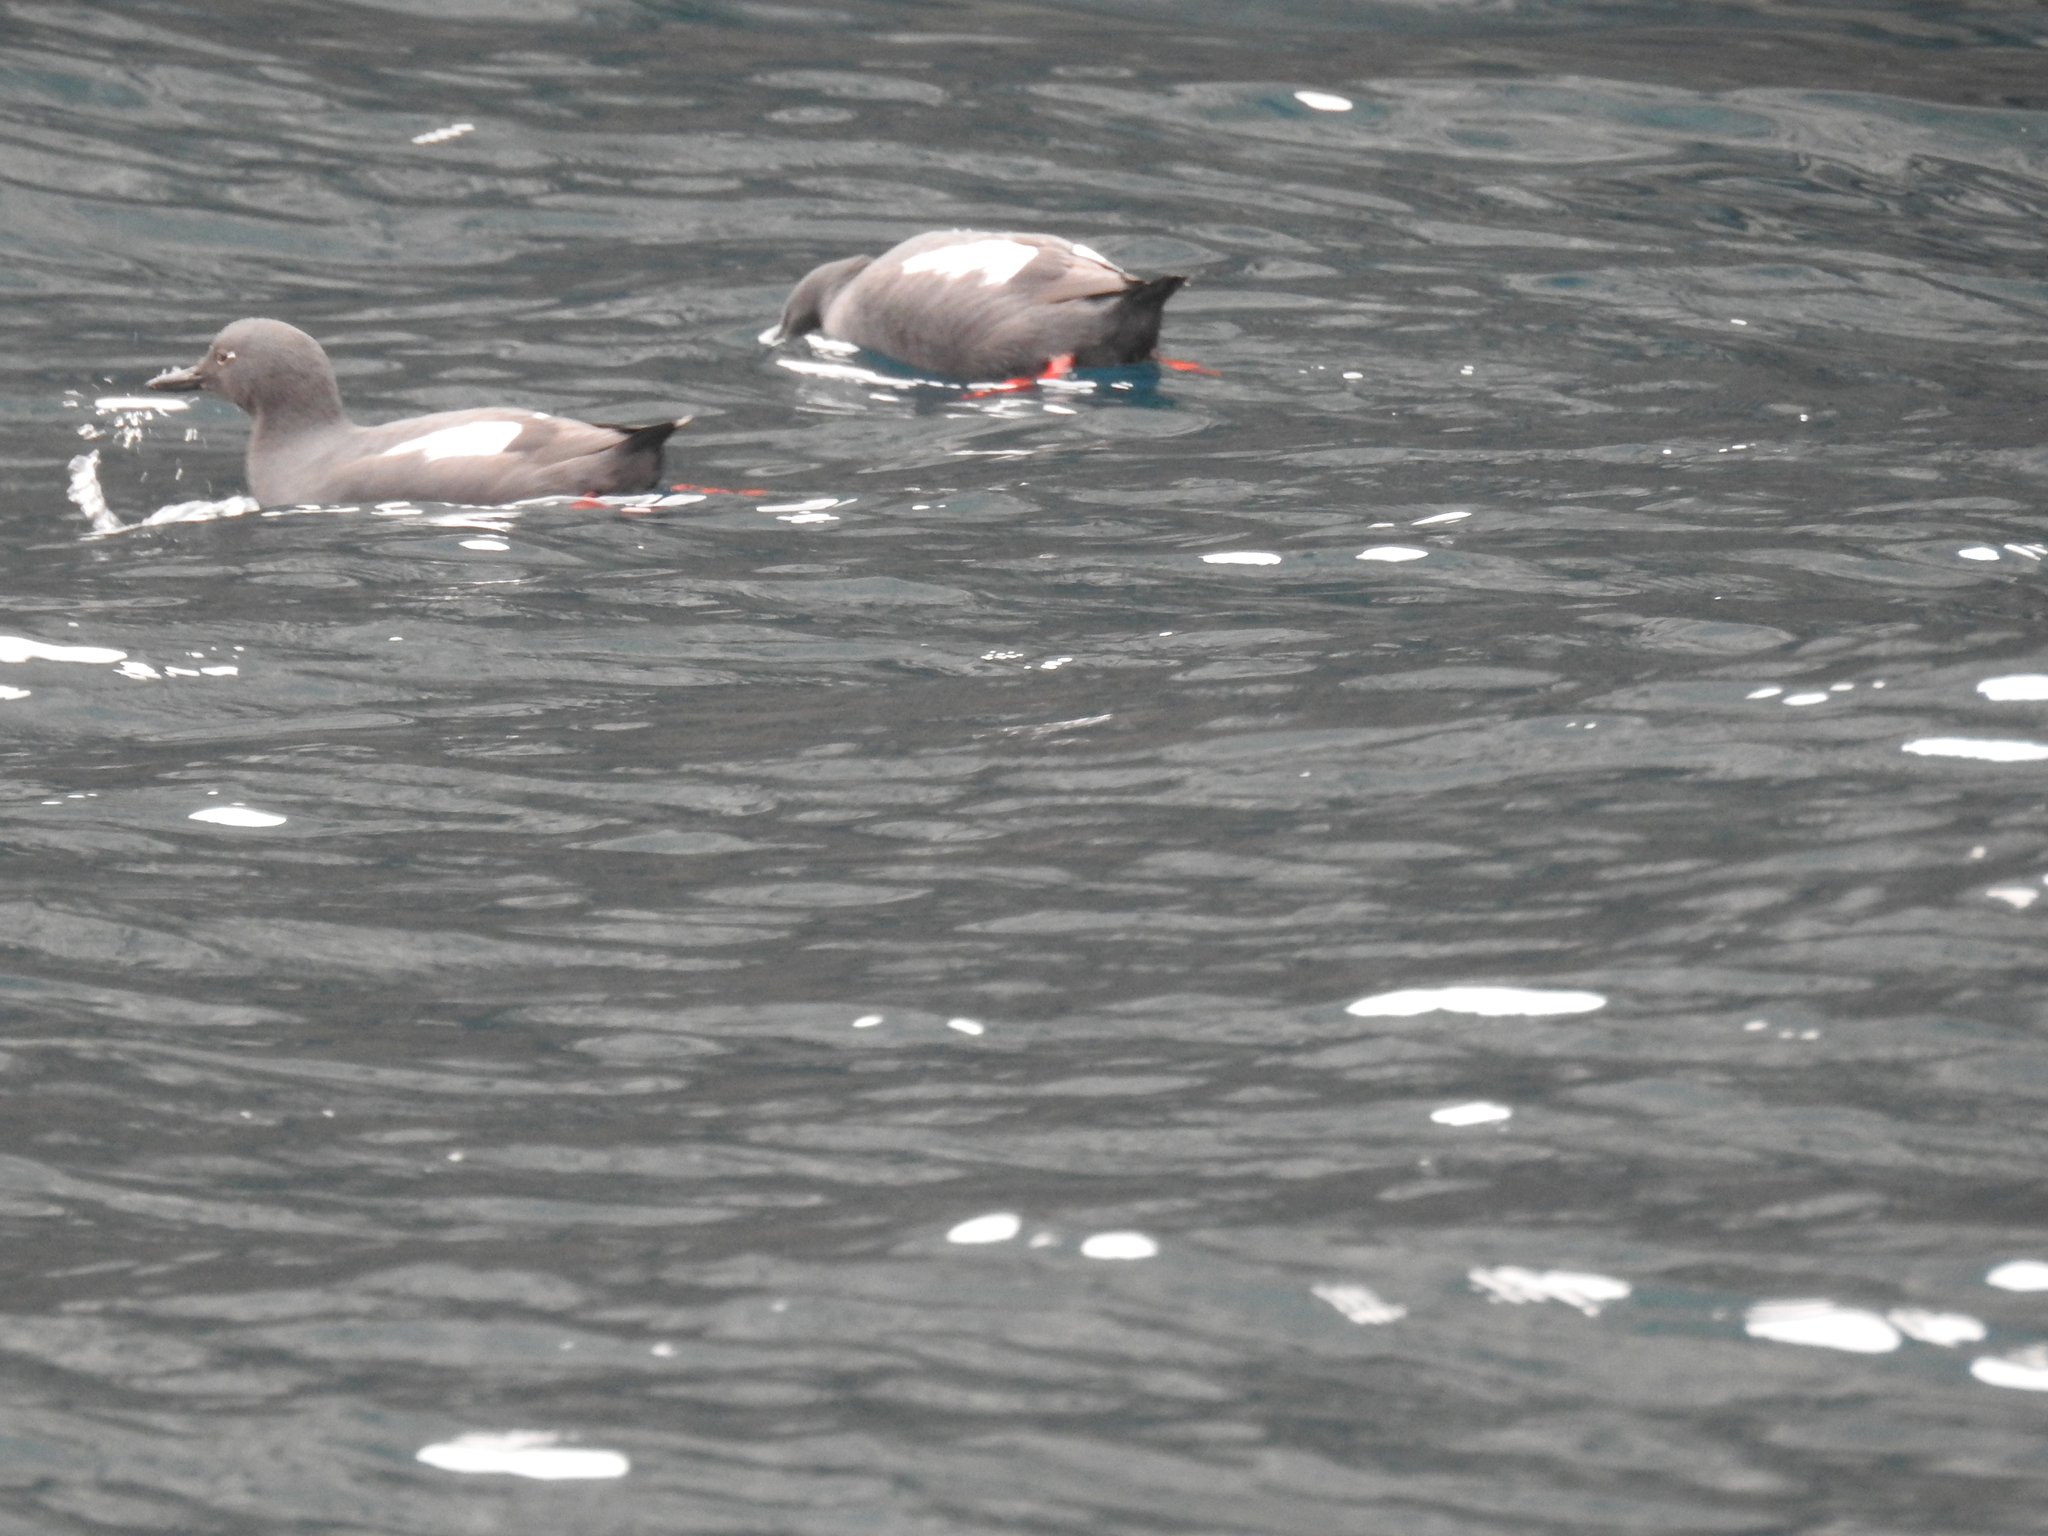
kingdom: Animalia
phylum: Chordata
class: Aves
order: Charadriiformes
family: Alcidae
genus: Cepphus
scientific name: Cepphus columba
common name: Pigeon guillemot
